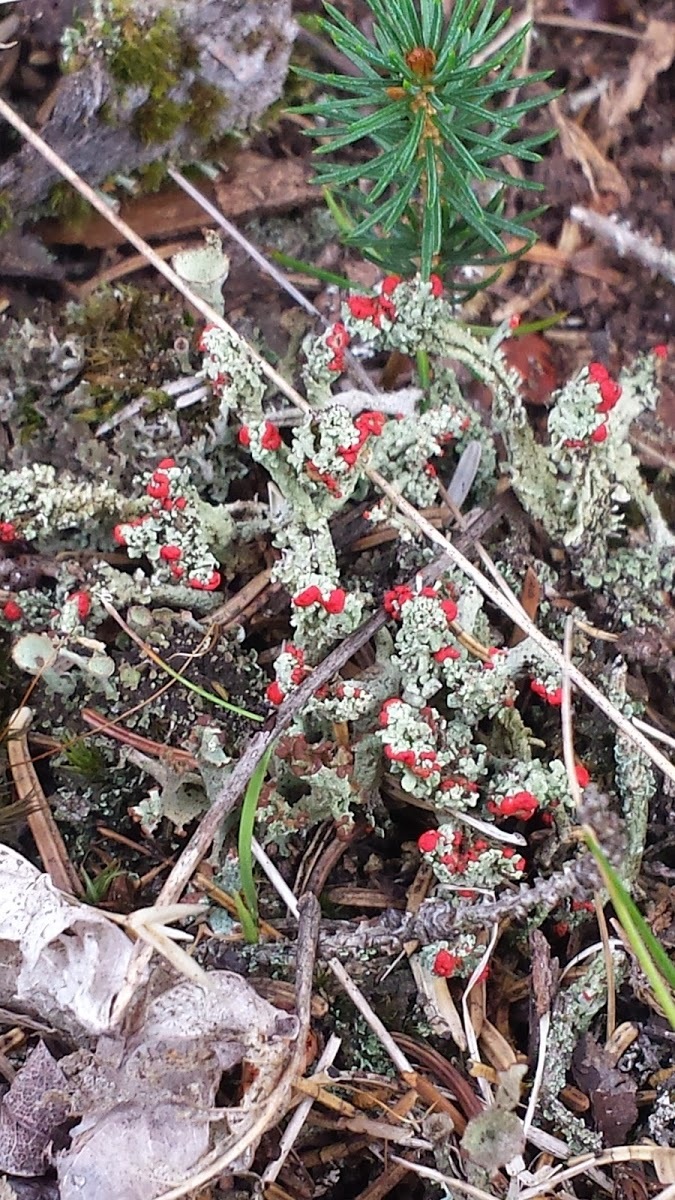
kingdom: Fungi
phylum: Ascomycota
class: Lecanoromycetes
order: Lecanorales
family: Cladoniaceae
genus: Cladonia
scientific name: Cladonia cristatella
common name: British soldier lichen
